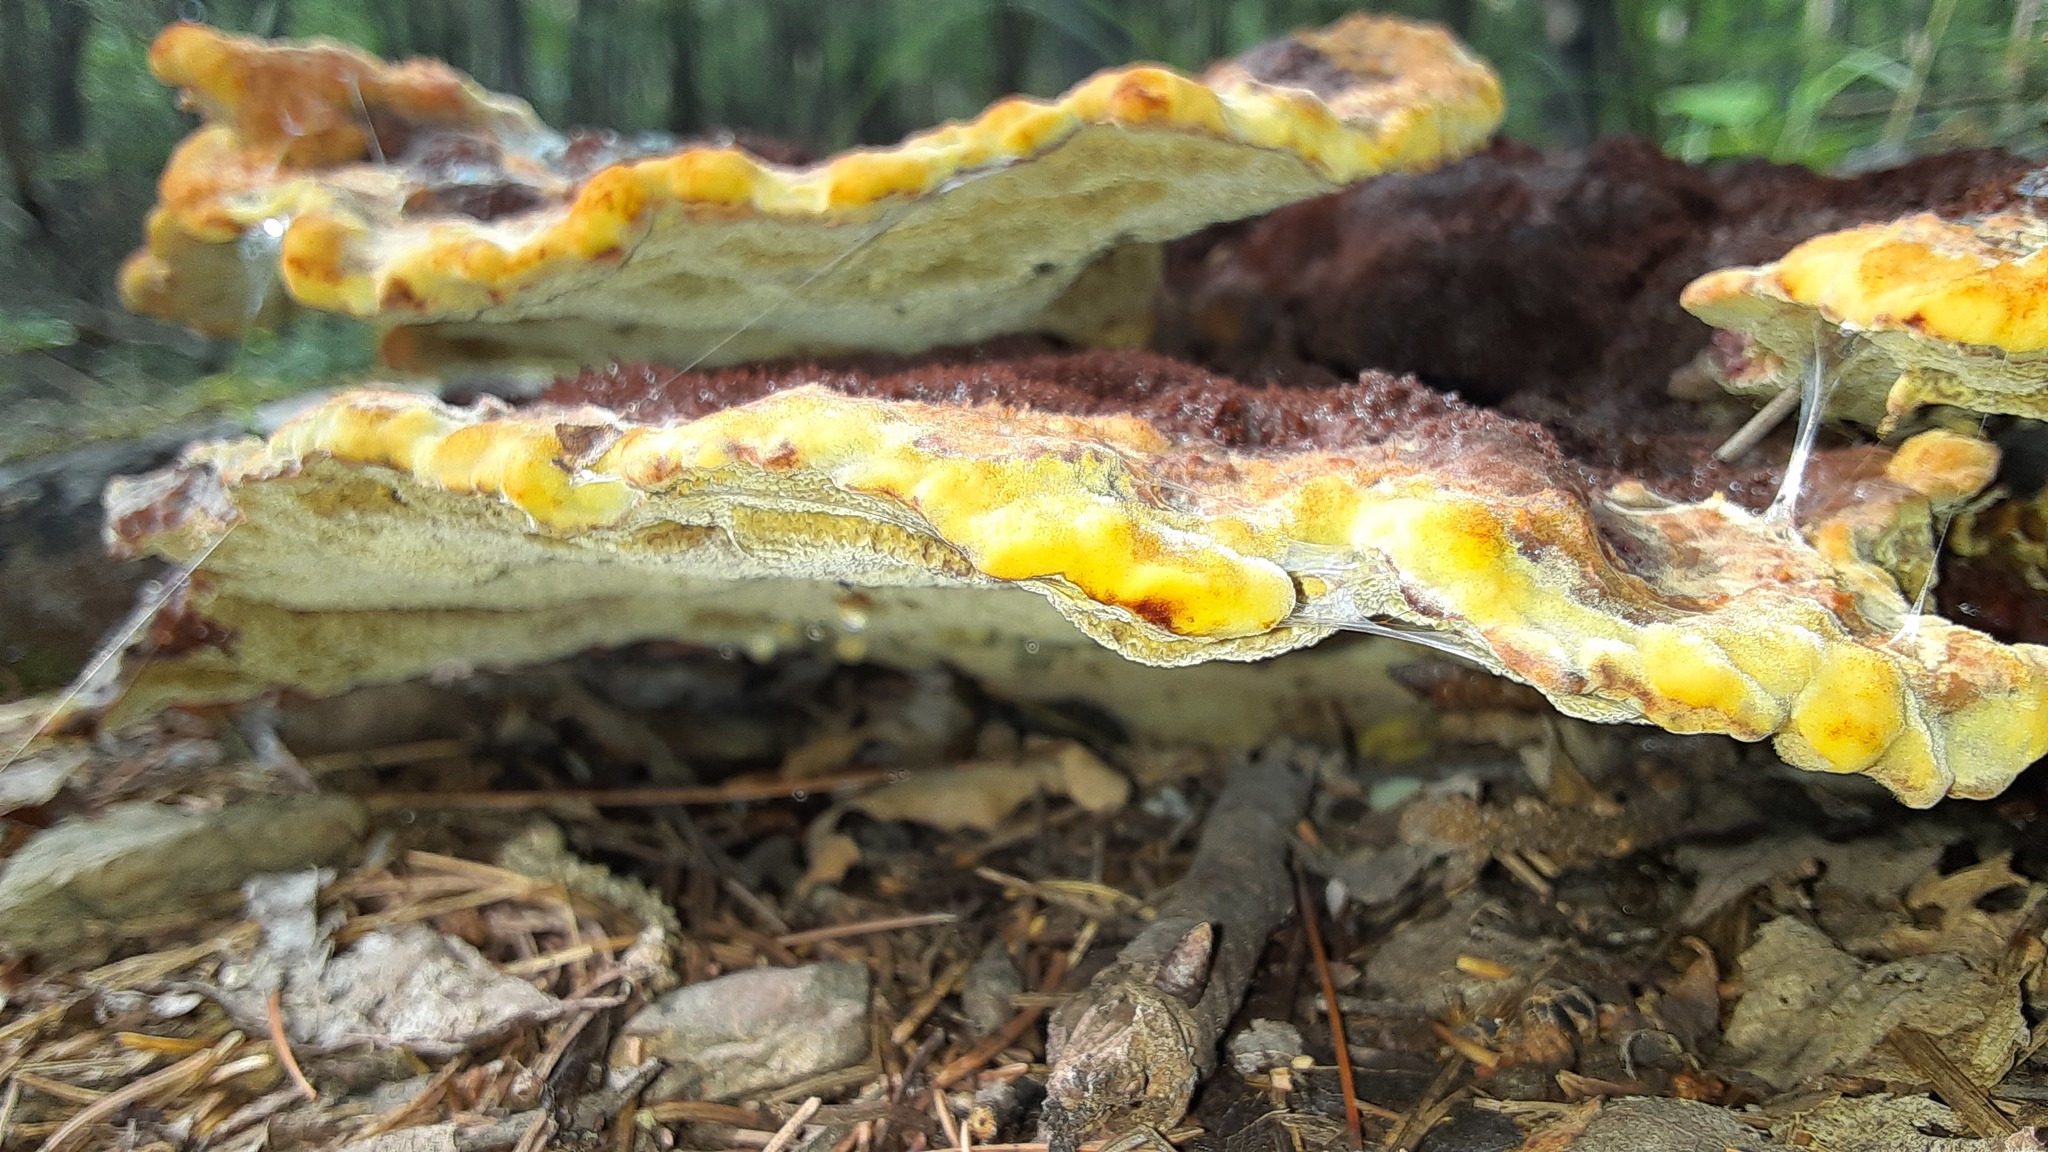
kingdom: Fungi
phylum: Basidiomycota
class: Agaricomycetes
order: Polyporales
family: Laetiporaceae
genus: Phaeolus
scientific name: Phaeolus schweinitzii
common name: Dyer's mazegill
